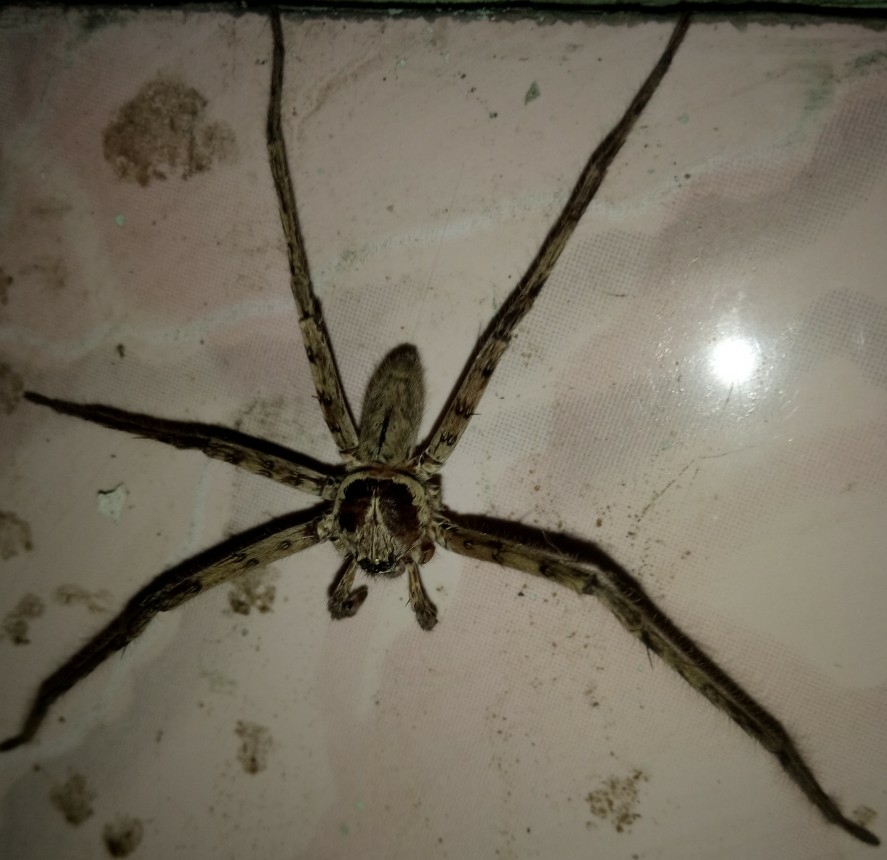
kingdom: Animalia
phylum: Arthropoda
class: Arachnida
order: Araneae
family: Sparassidae
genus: Heteropoda
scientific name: Heteropoda venatoria
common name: Huntsman spider
